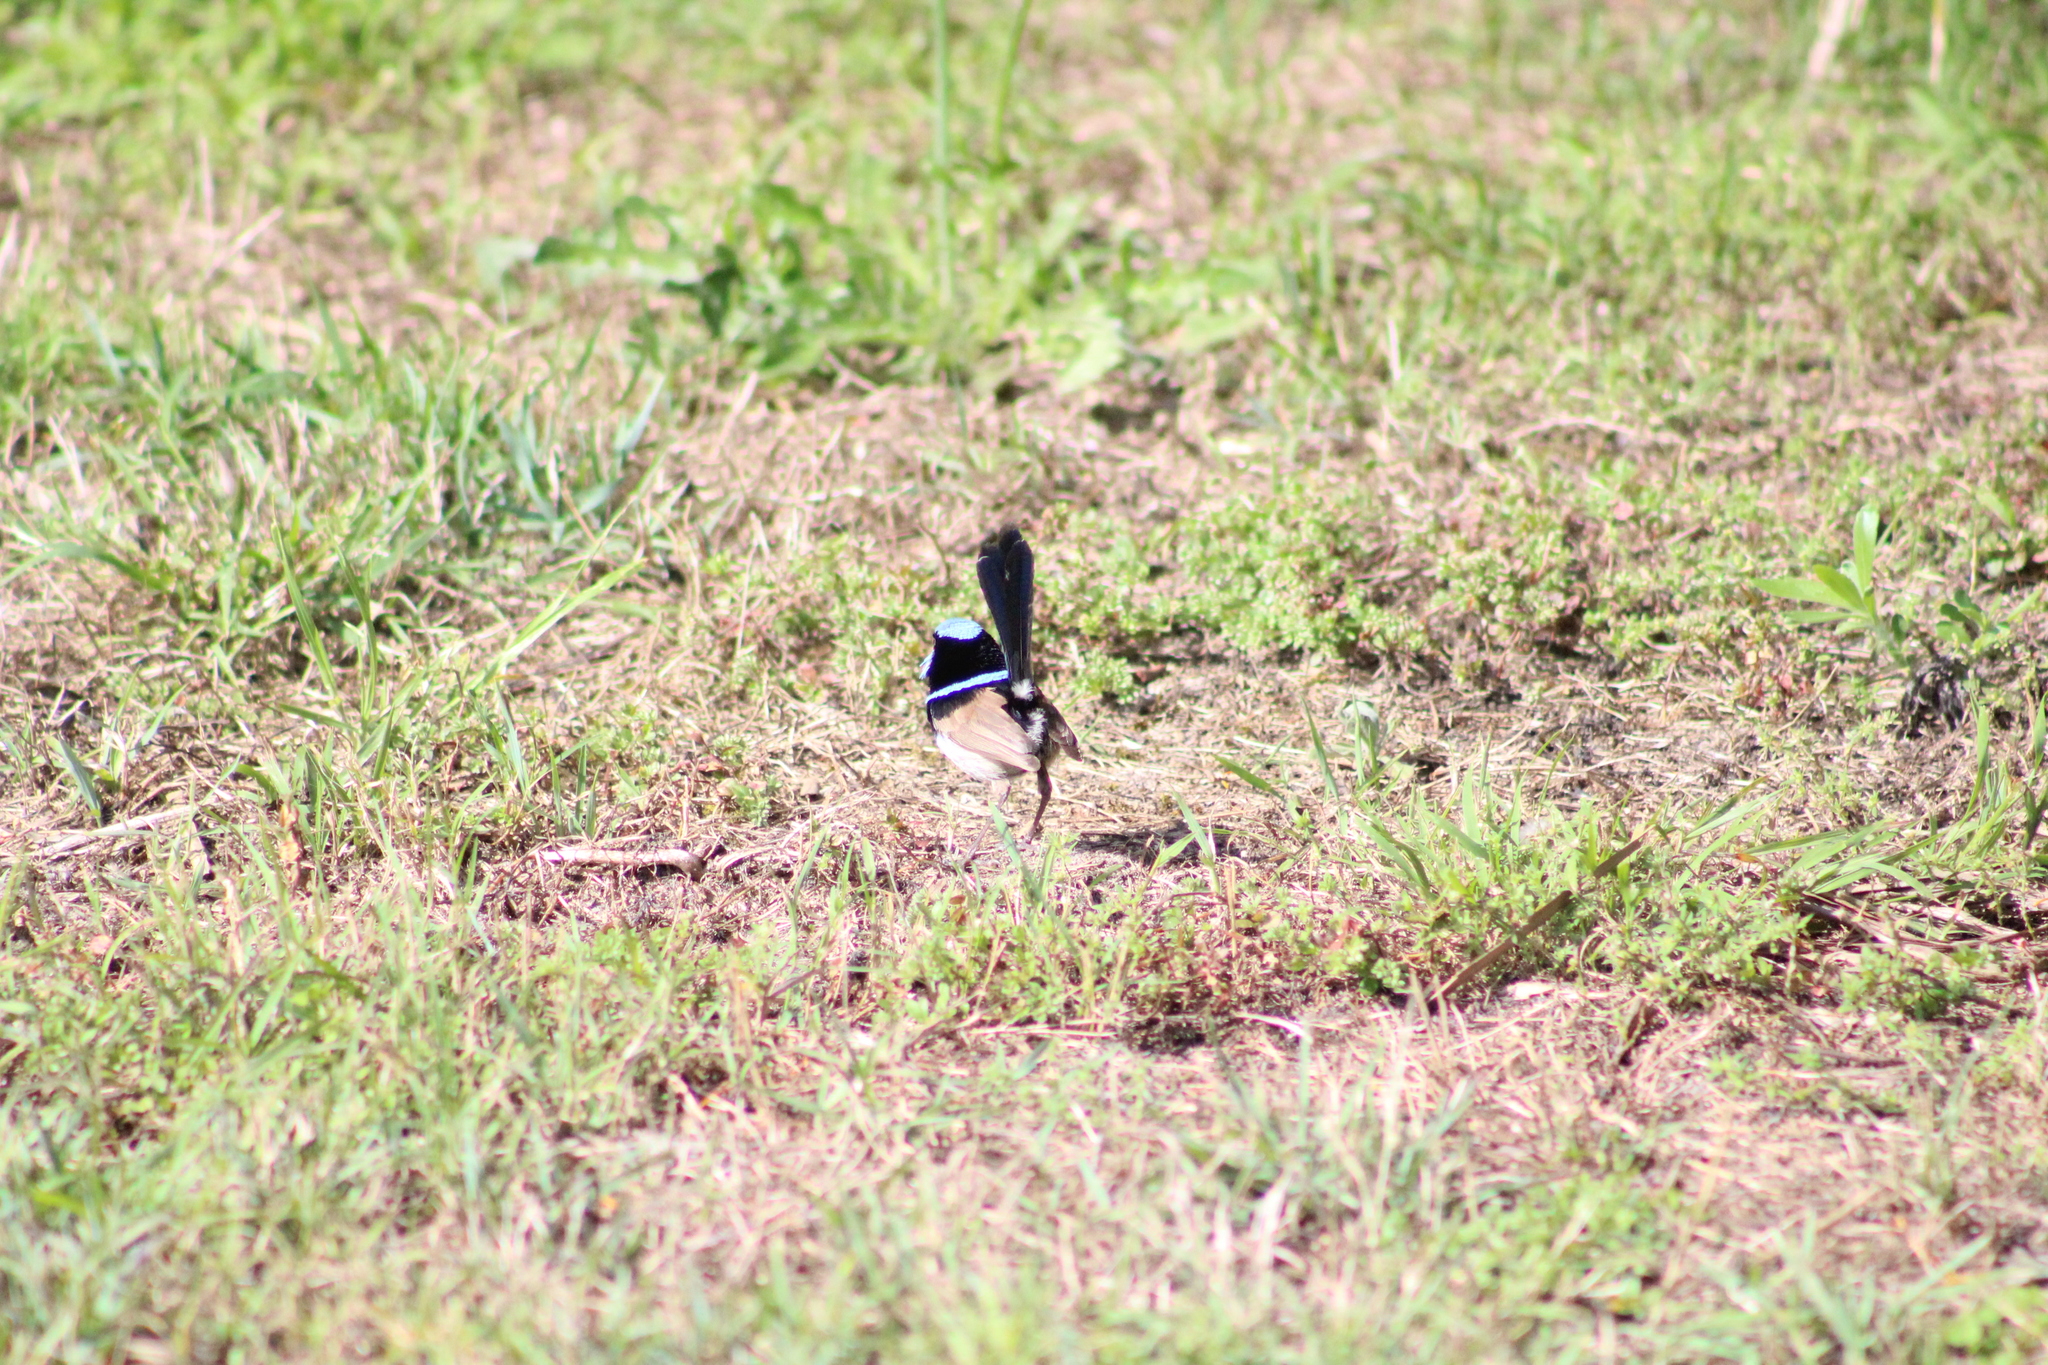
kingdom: Animalia
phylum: Chordata
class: Aves
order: Passeriformes
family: Maluridae
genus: Malurus
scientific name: Malurus cyaneus
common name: Superb fairywren
